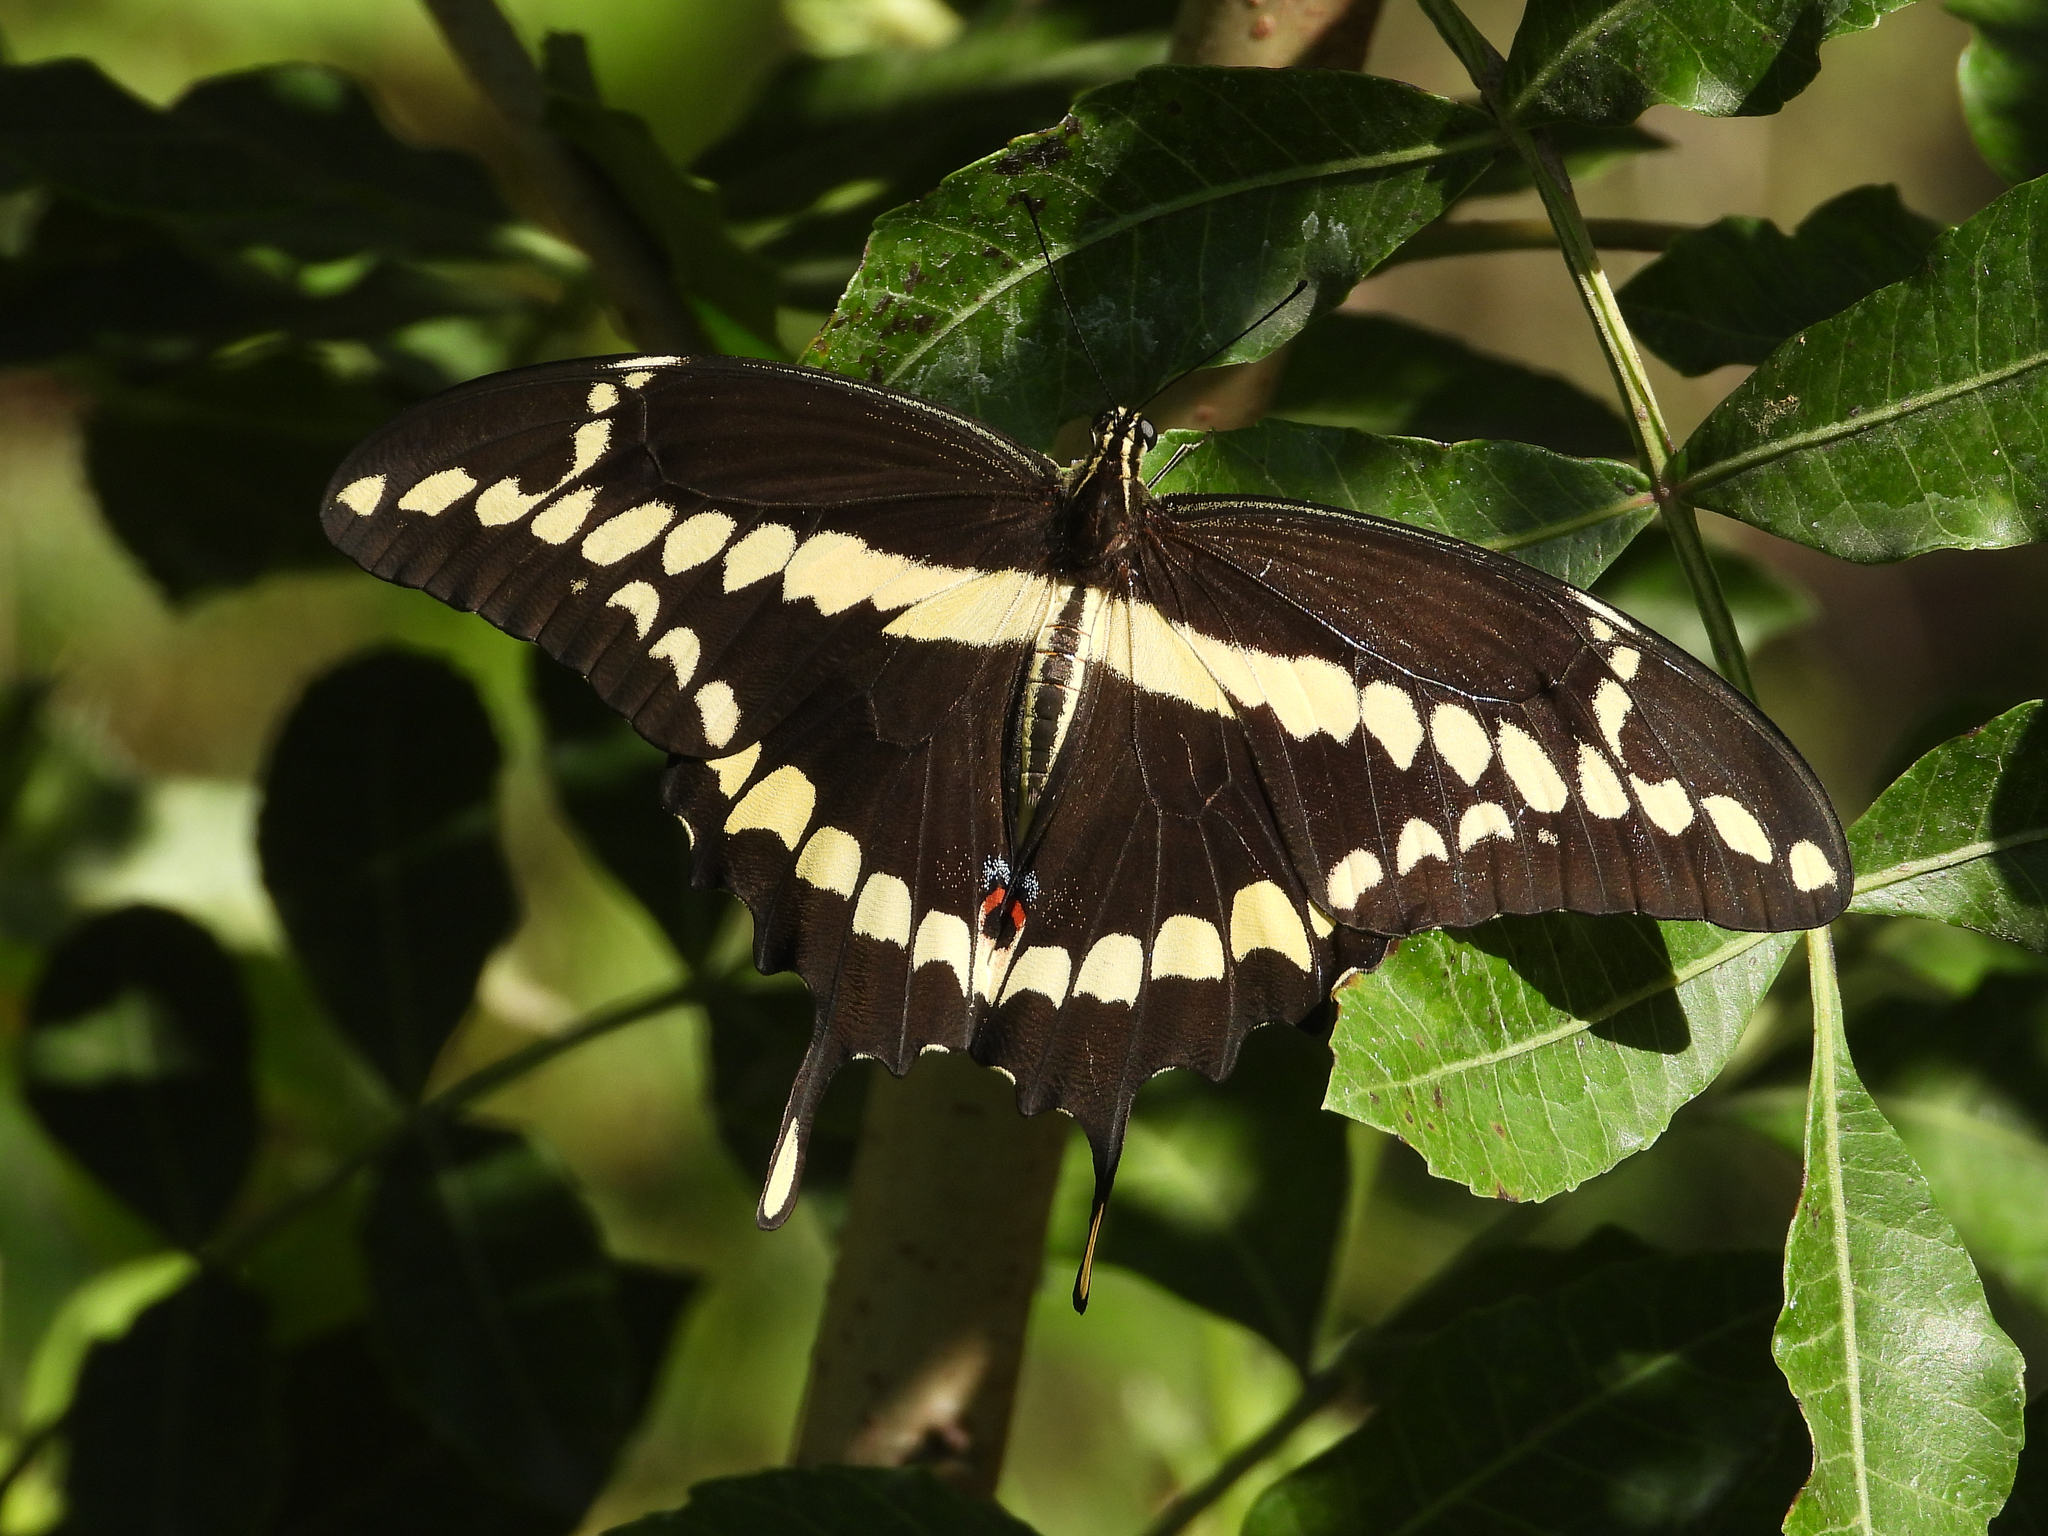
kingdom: Animalia
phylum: Arthropoda
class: Insecta
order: Lepidoptera
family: Papilionidae
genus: Papilio
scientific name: Papilio rumiko
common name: Western giant swallowtail
